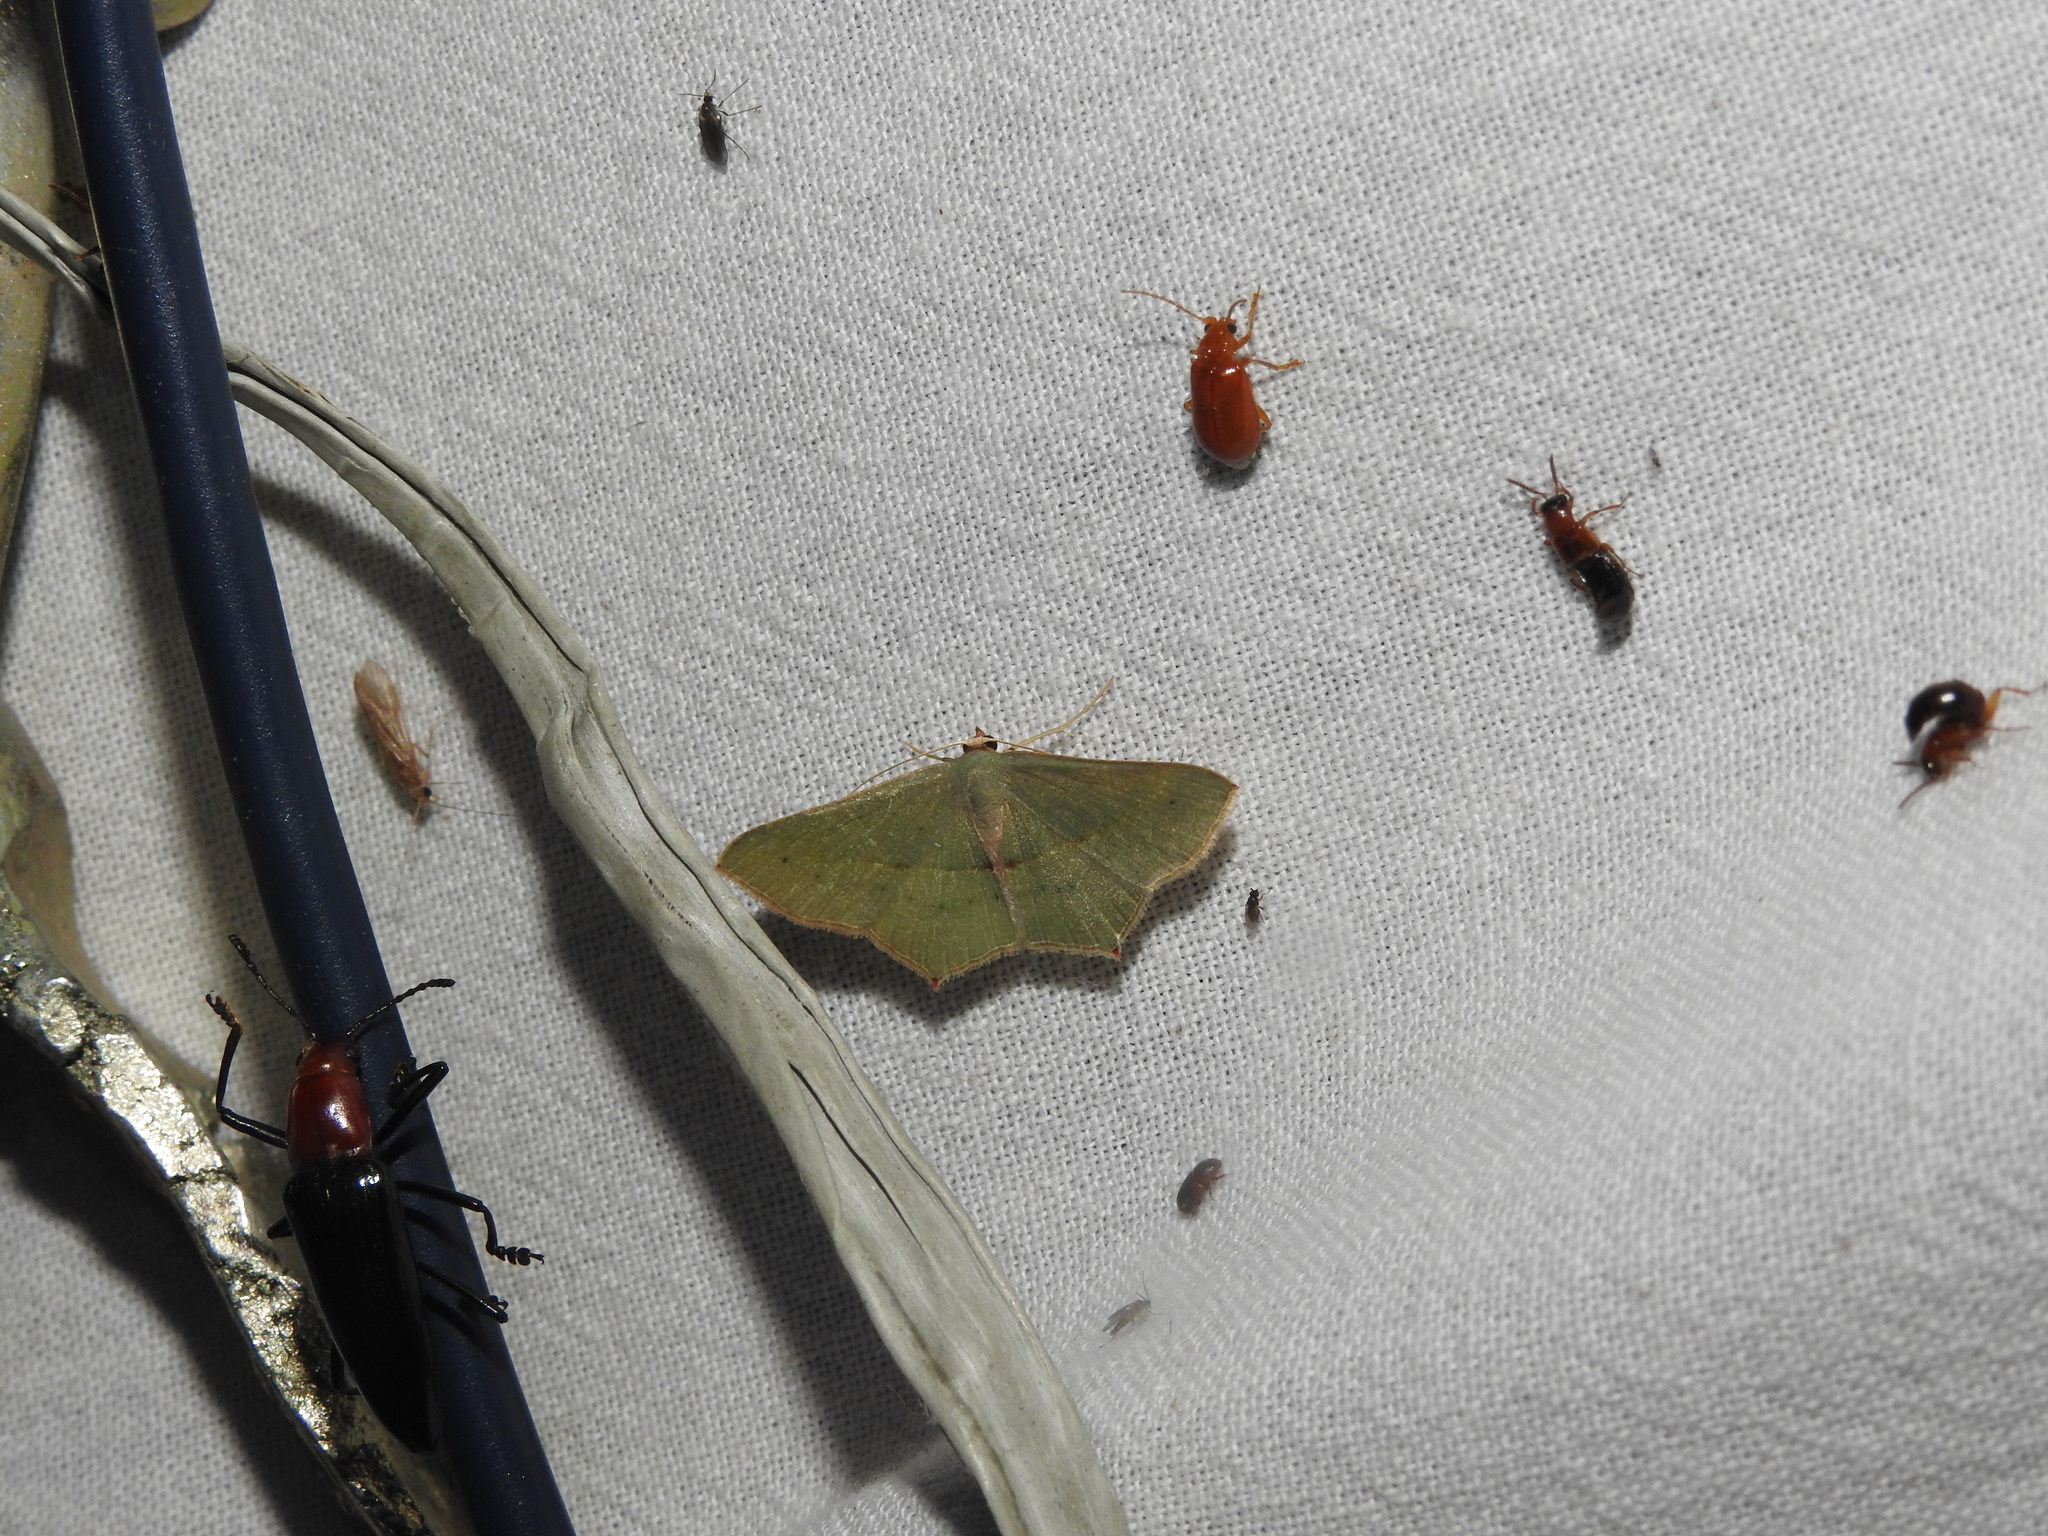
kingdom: Animalia
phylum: Arthropoda
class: Insecta
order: Lepidoptera
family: Geometridae
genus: Traminda
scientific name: Traminda mundissima
